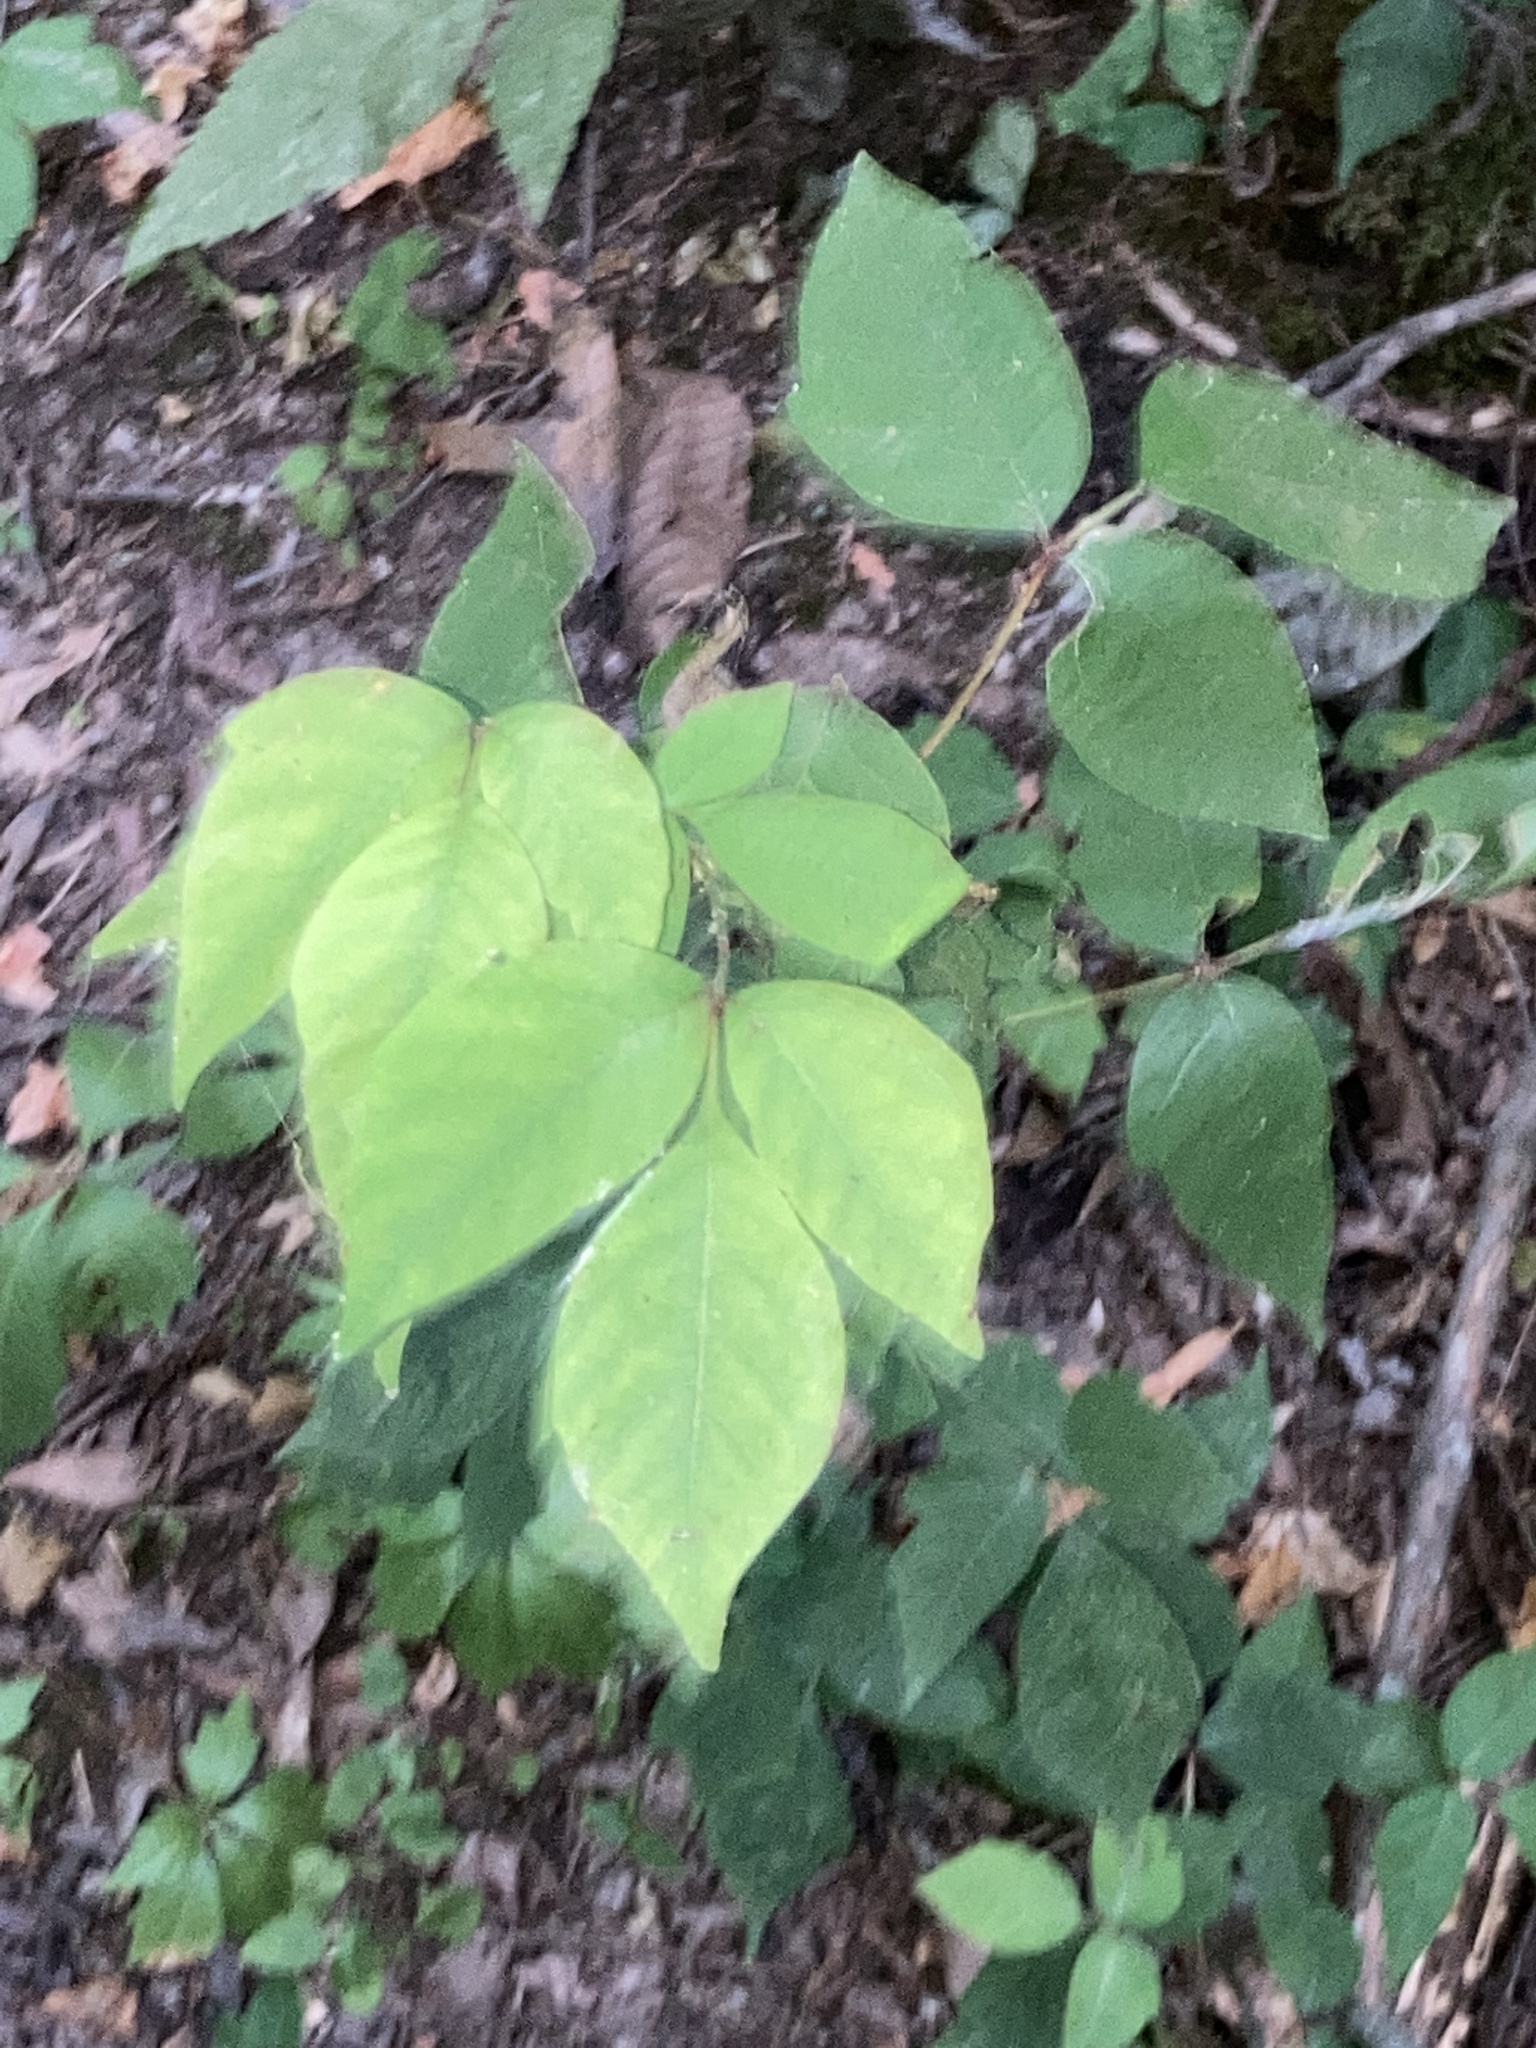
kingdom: Plantae
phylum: Tracheophyta
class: Magnoliopsida
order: Sapindales
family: Anacardiaceae
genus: Toxicodendron
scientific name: Toxicodendron radicans
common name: Poison ivy
